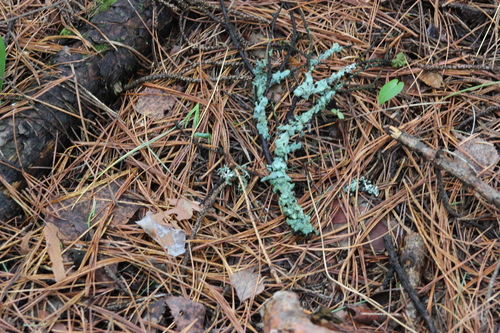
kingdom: Fungi
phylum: Ascomycota
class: Lecanoromycetes
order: Lecanorales
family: Parmeliaceae
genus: Parmelia
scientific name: Parmelia
